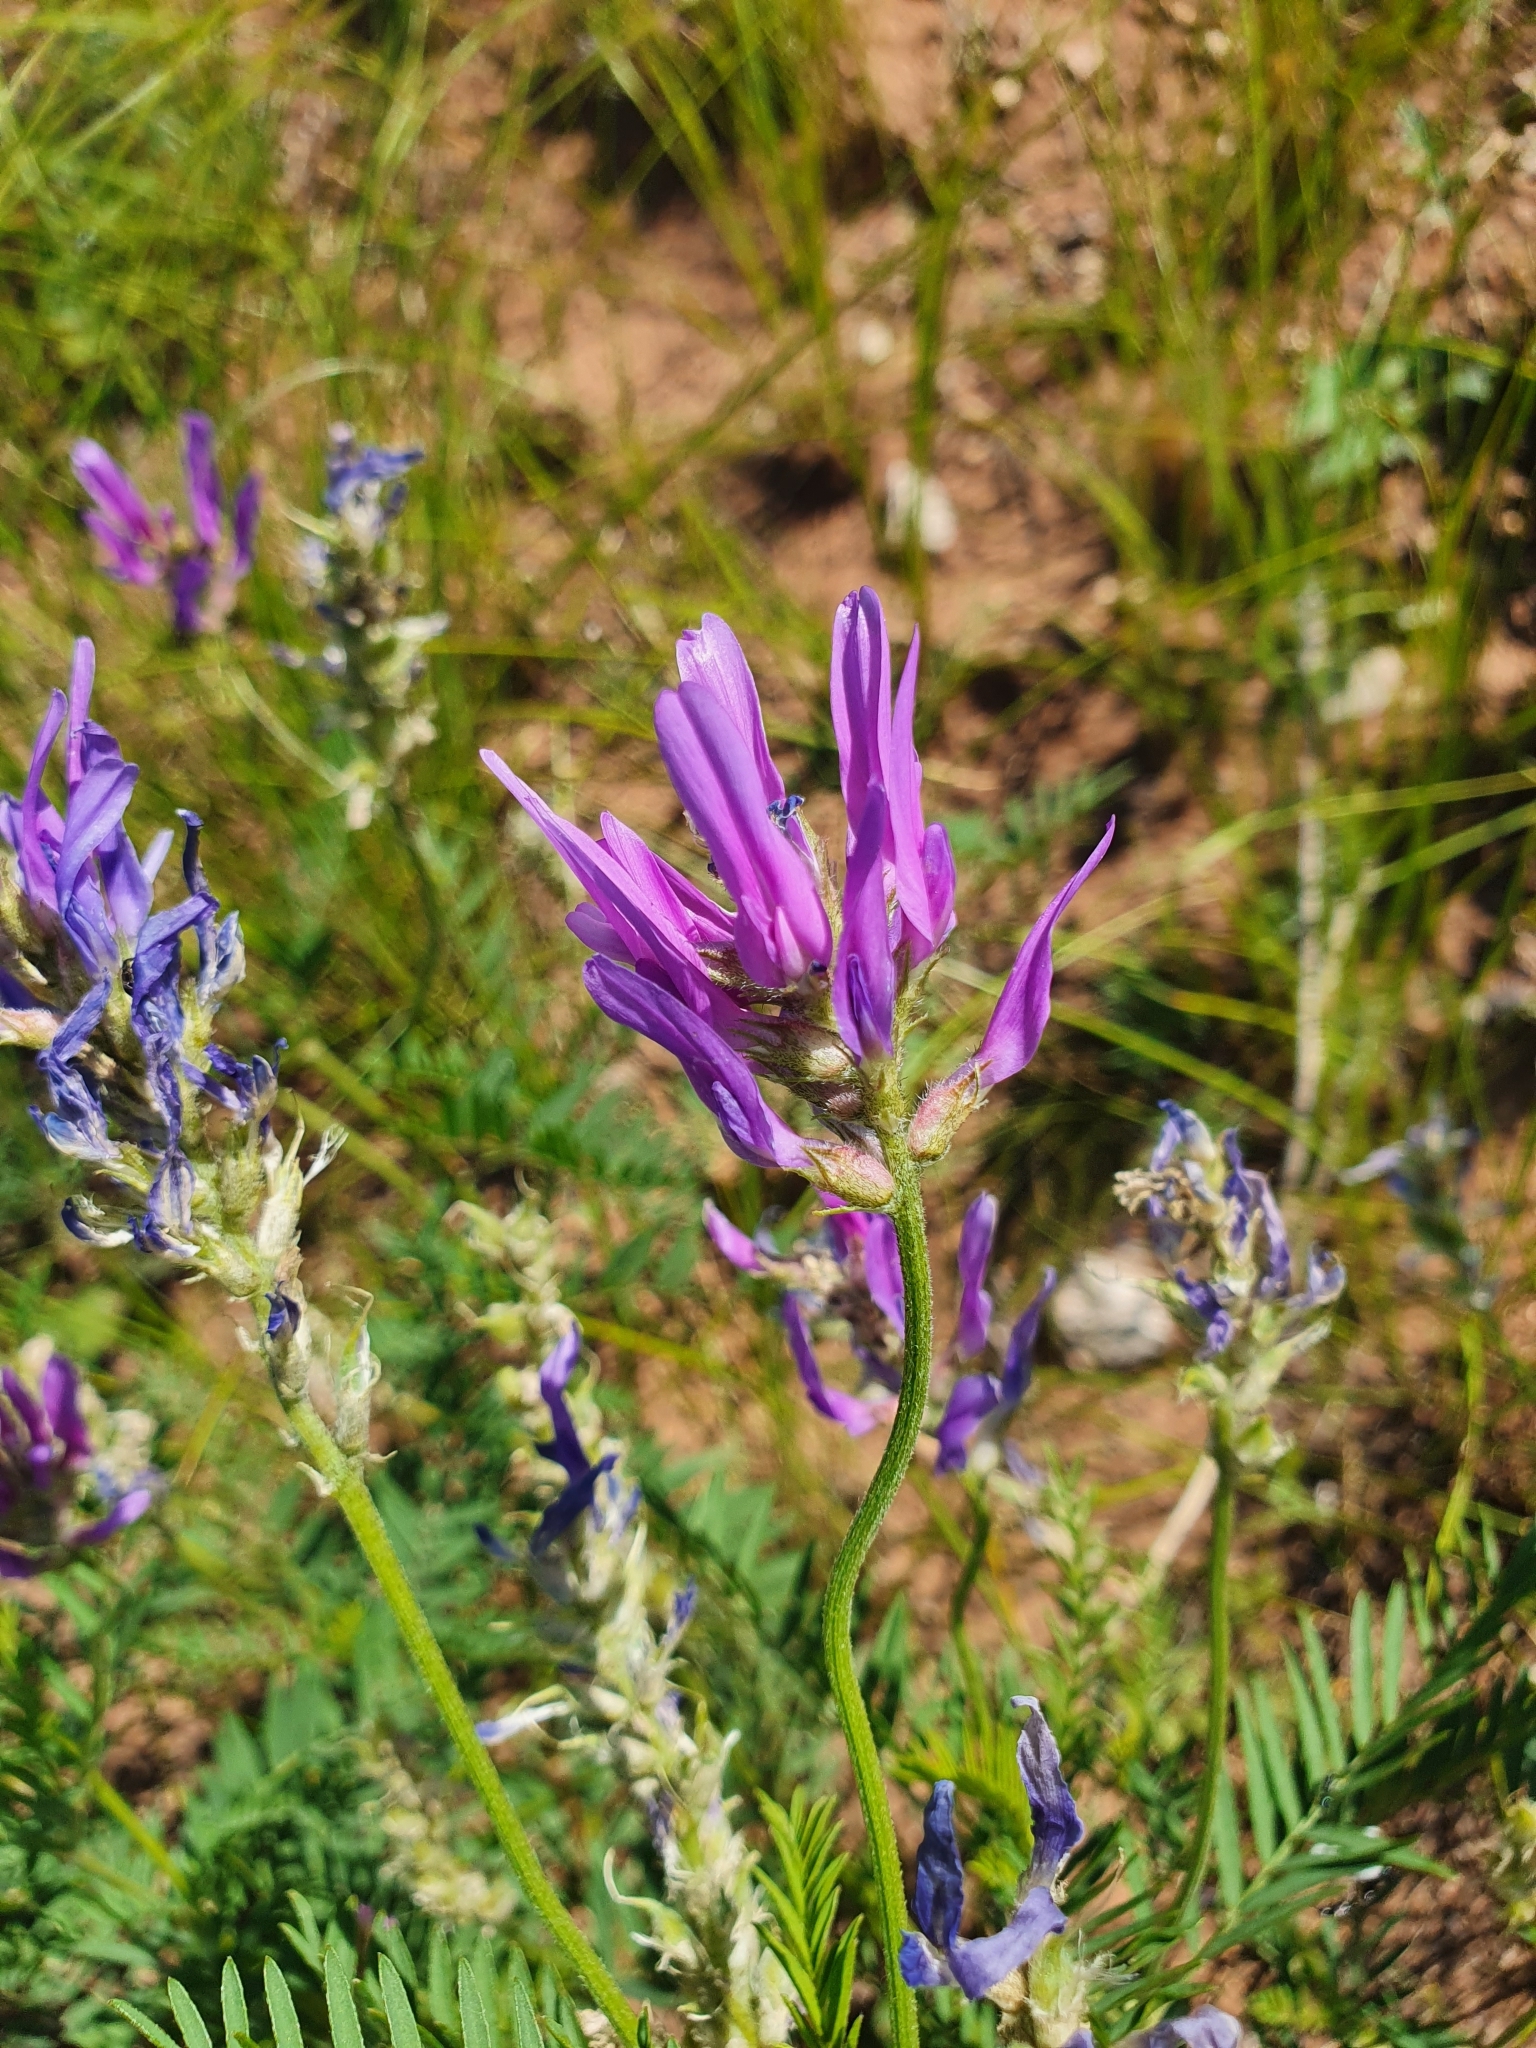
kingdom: Plantae
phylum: Tracheophyta
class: Magnoliopsida
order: Fabales
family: Fabaceae
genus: Astragalus
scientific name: Astragalus onobrychis
